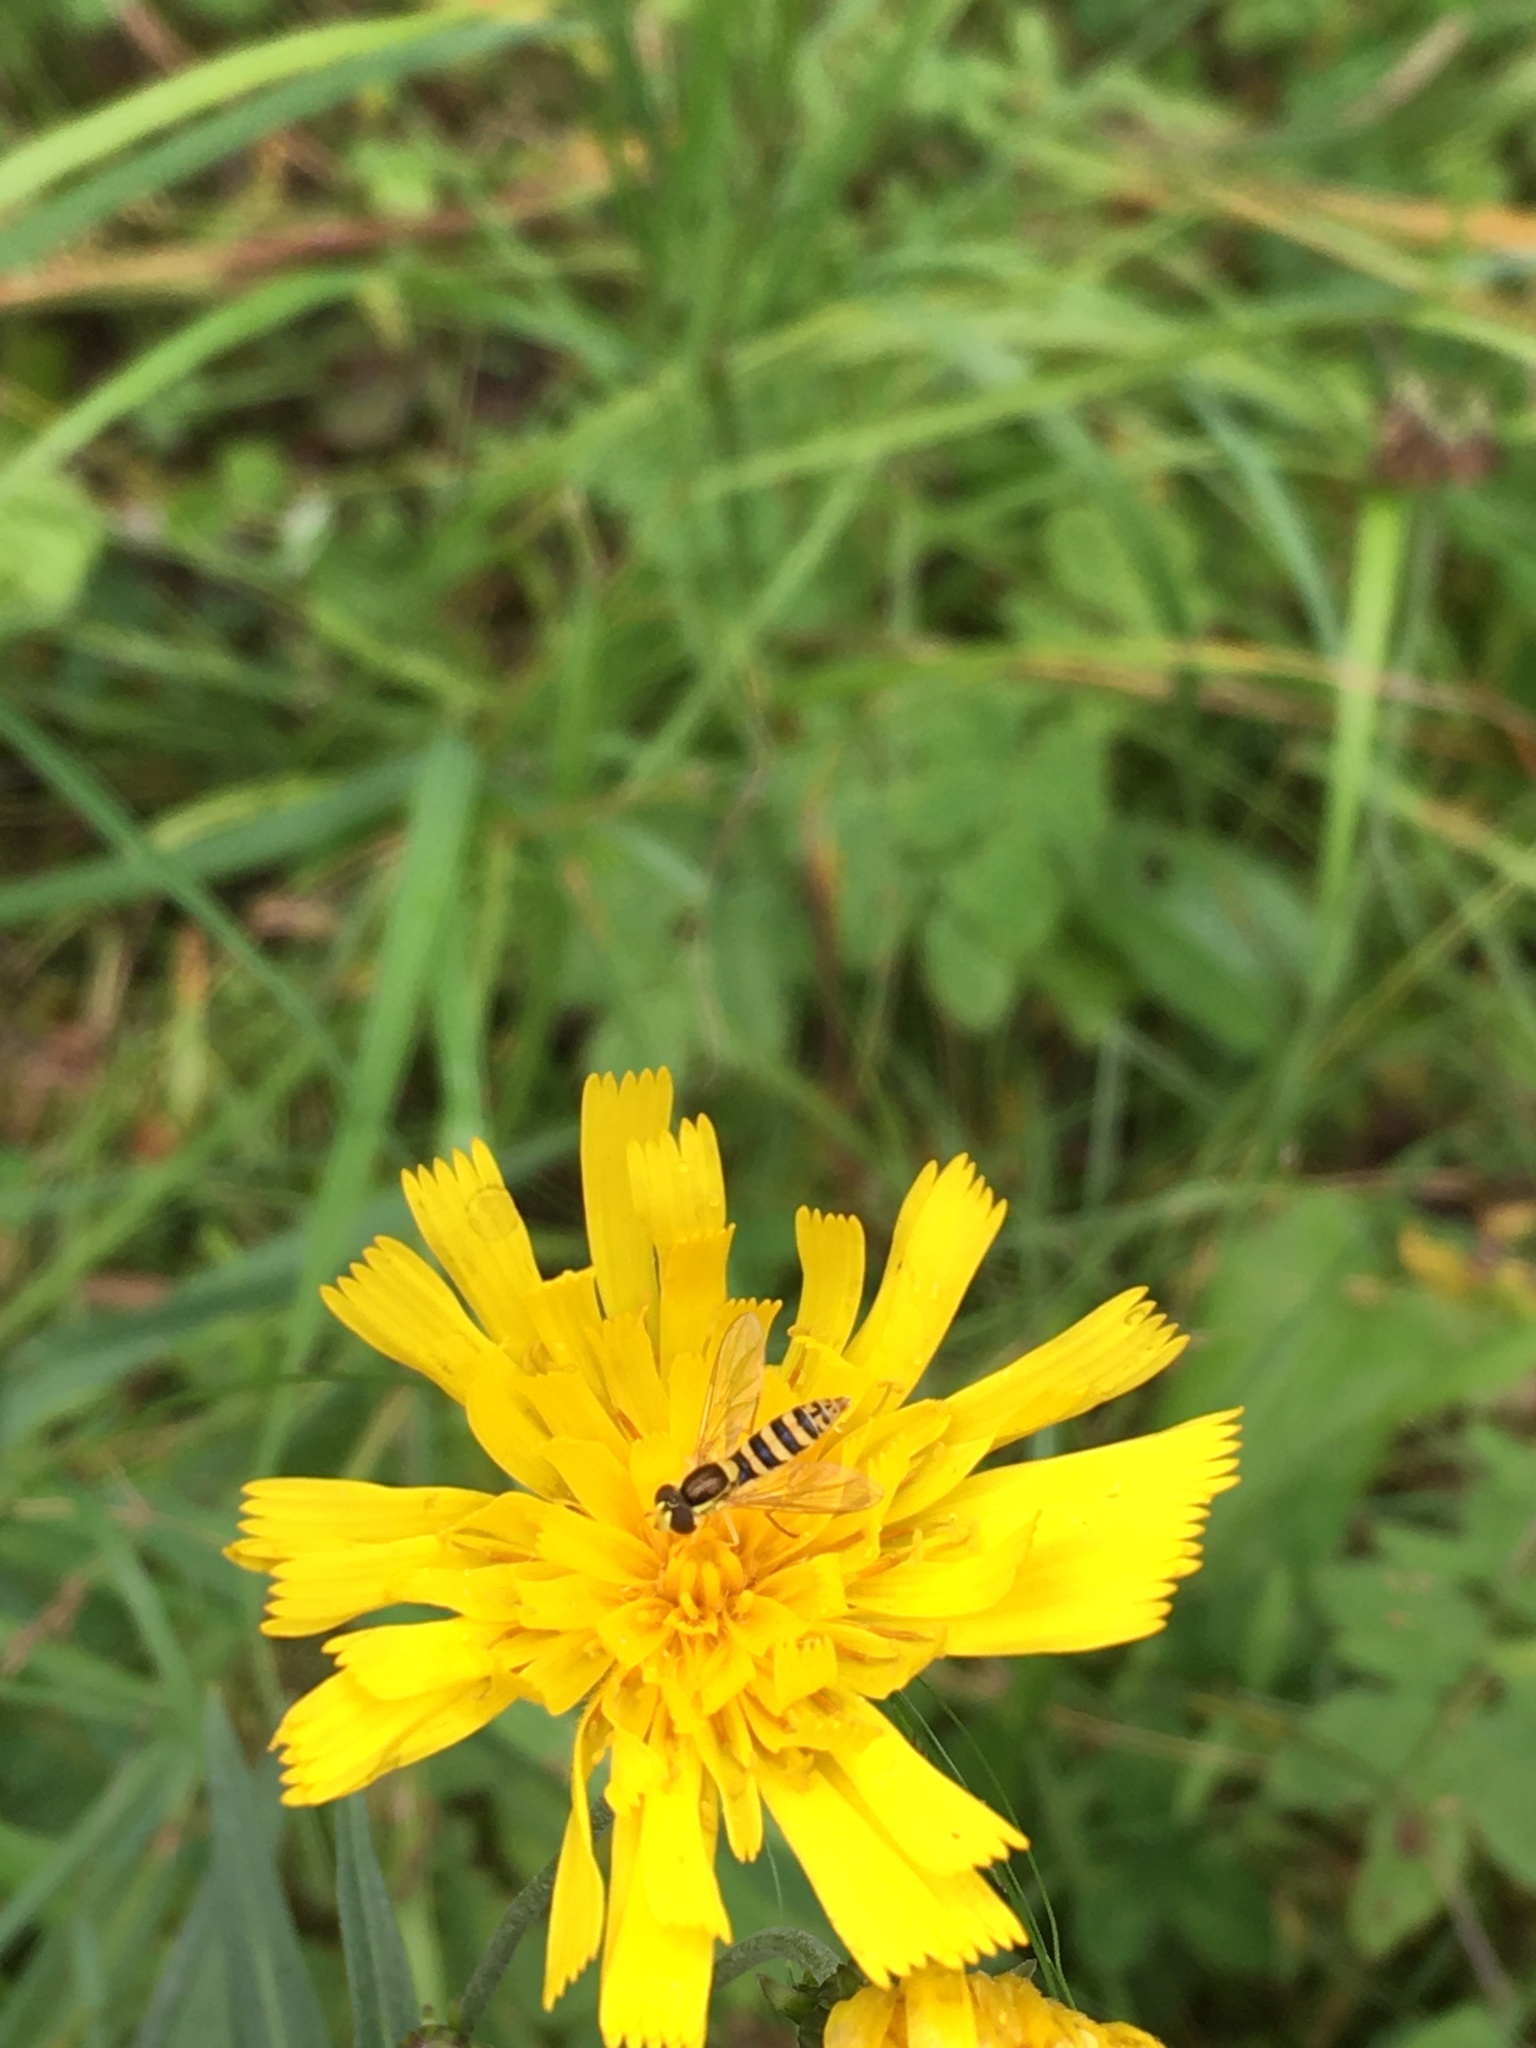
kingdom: Animalia
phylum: Arthropoda
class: Insecta
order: Diptera
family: Syrphidae
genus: Sphaerophoria
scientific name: Sphaerophoria
